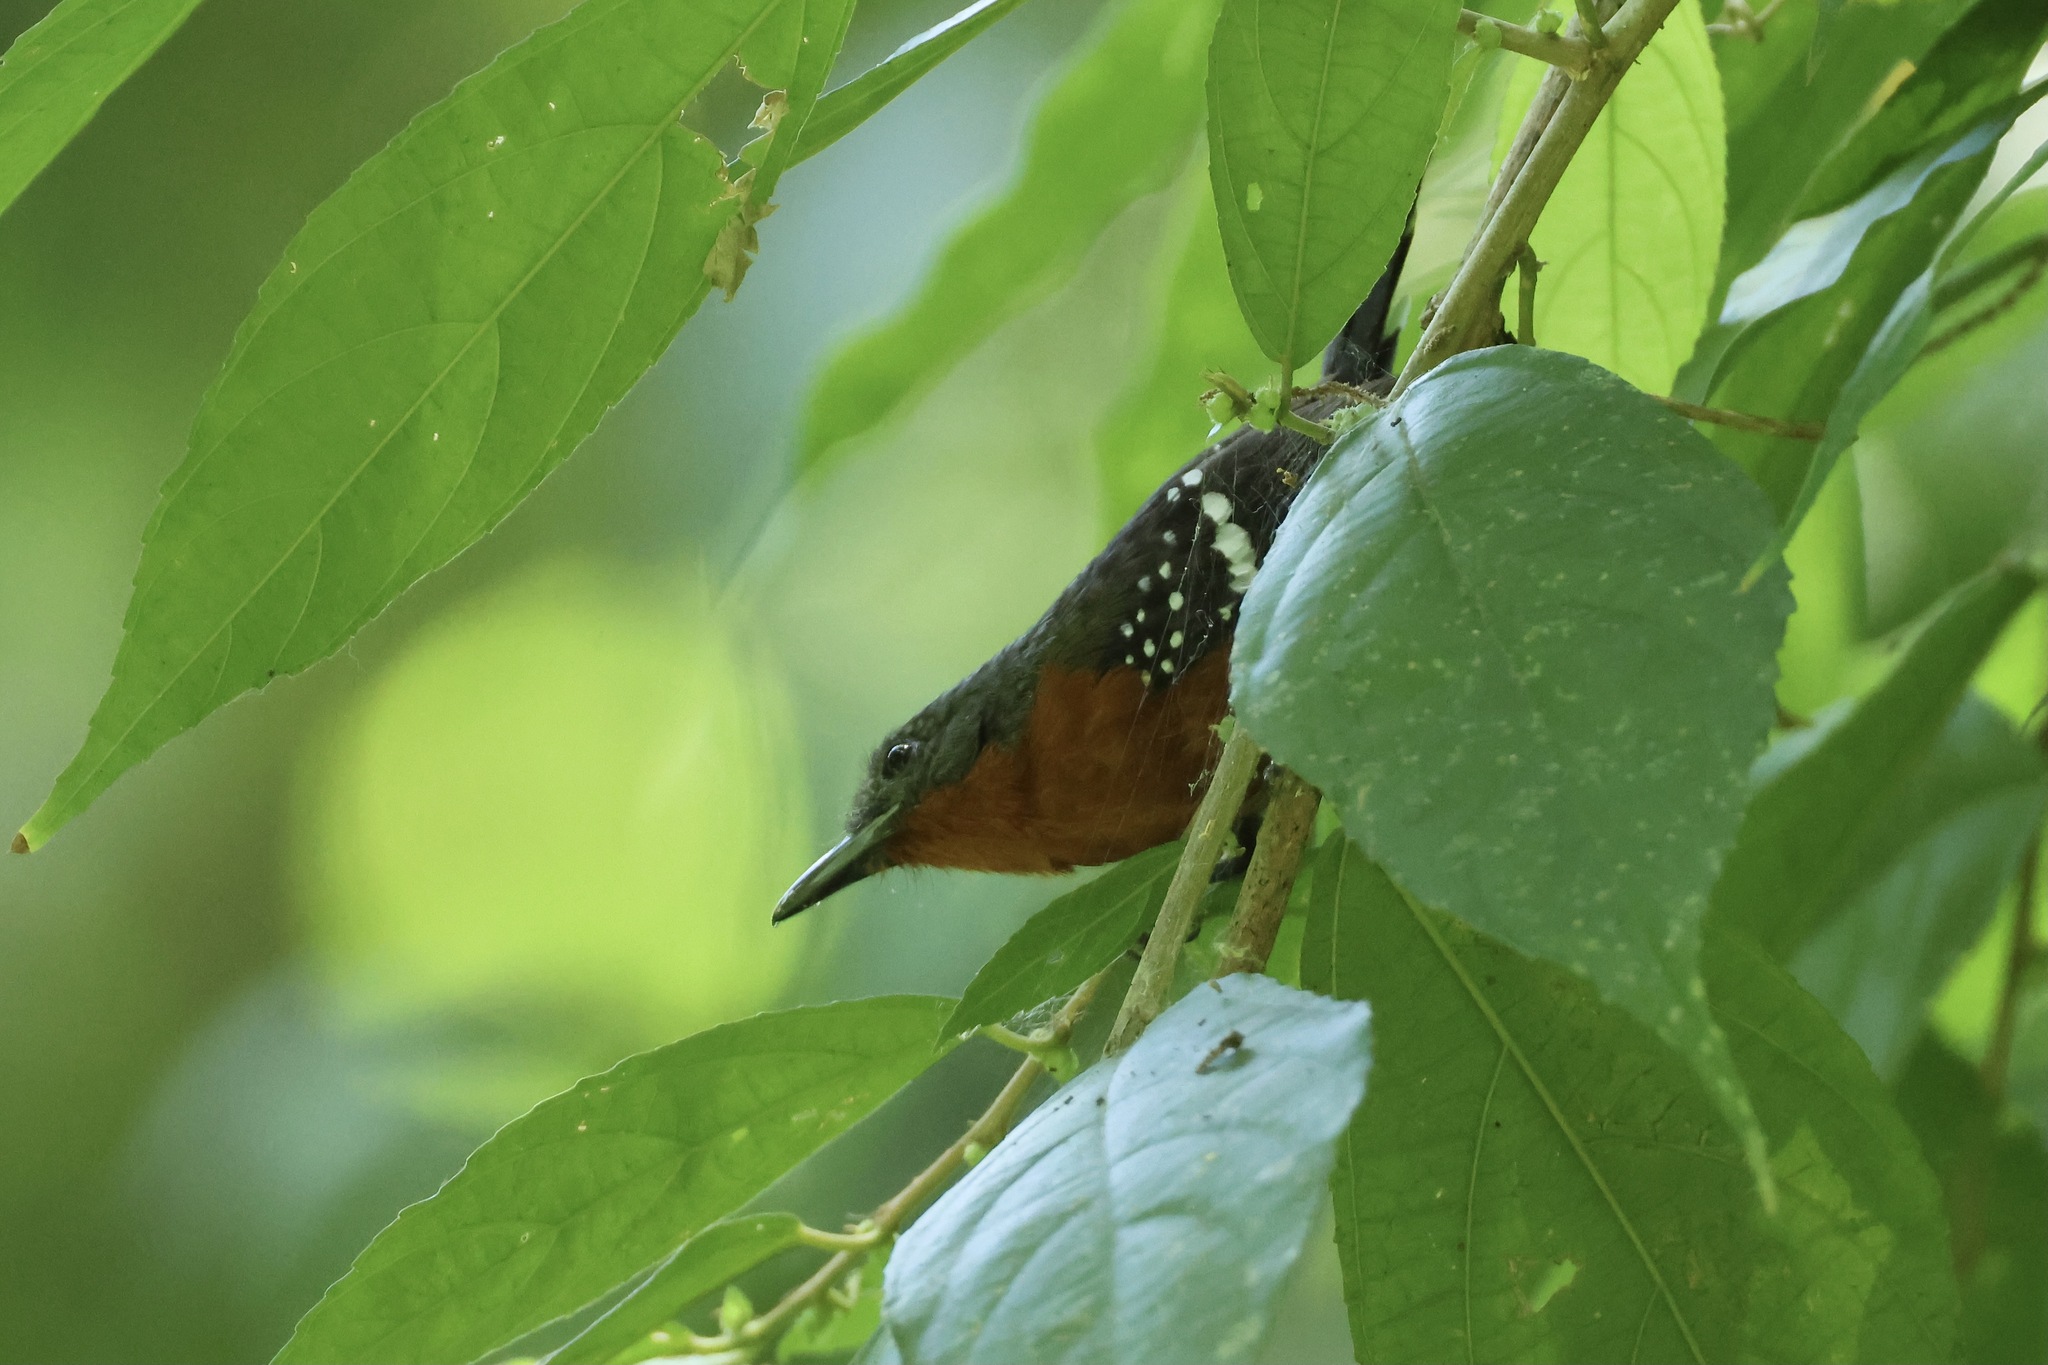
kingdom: Animalia
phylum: Chordata
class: Aves
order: Passeriformes
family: Thamnophilidae
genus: Microrhopias
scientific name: Microrhopias quixensis
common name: Dot-winged antwren
